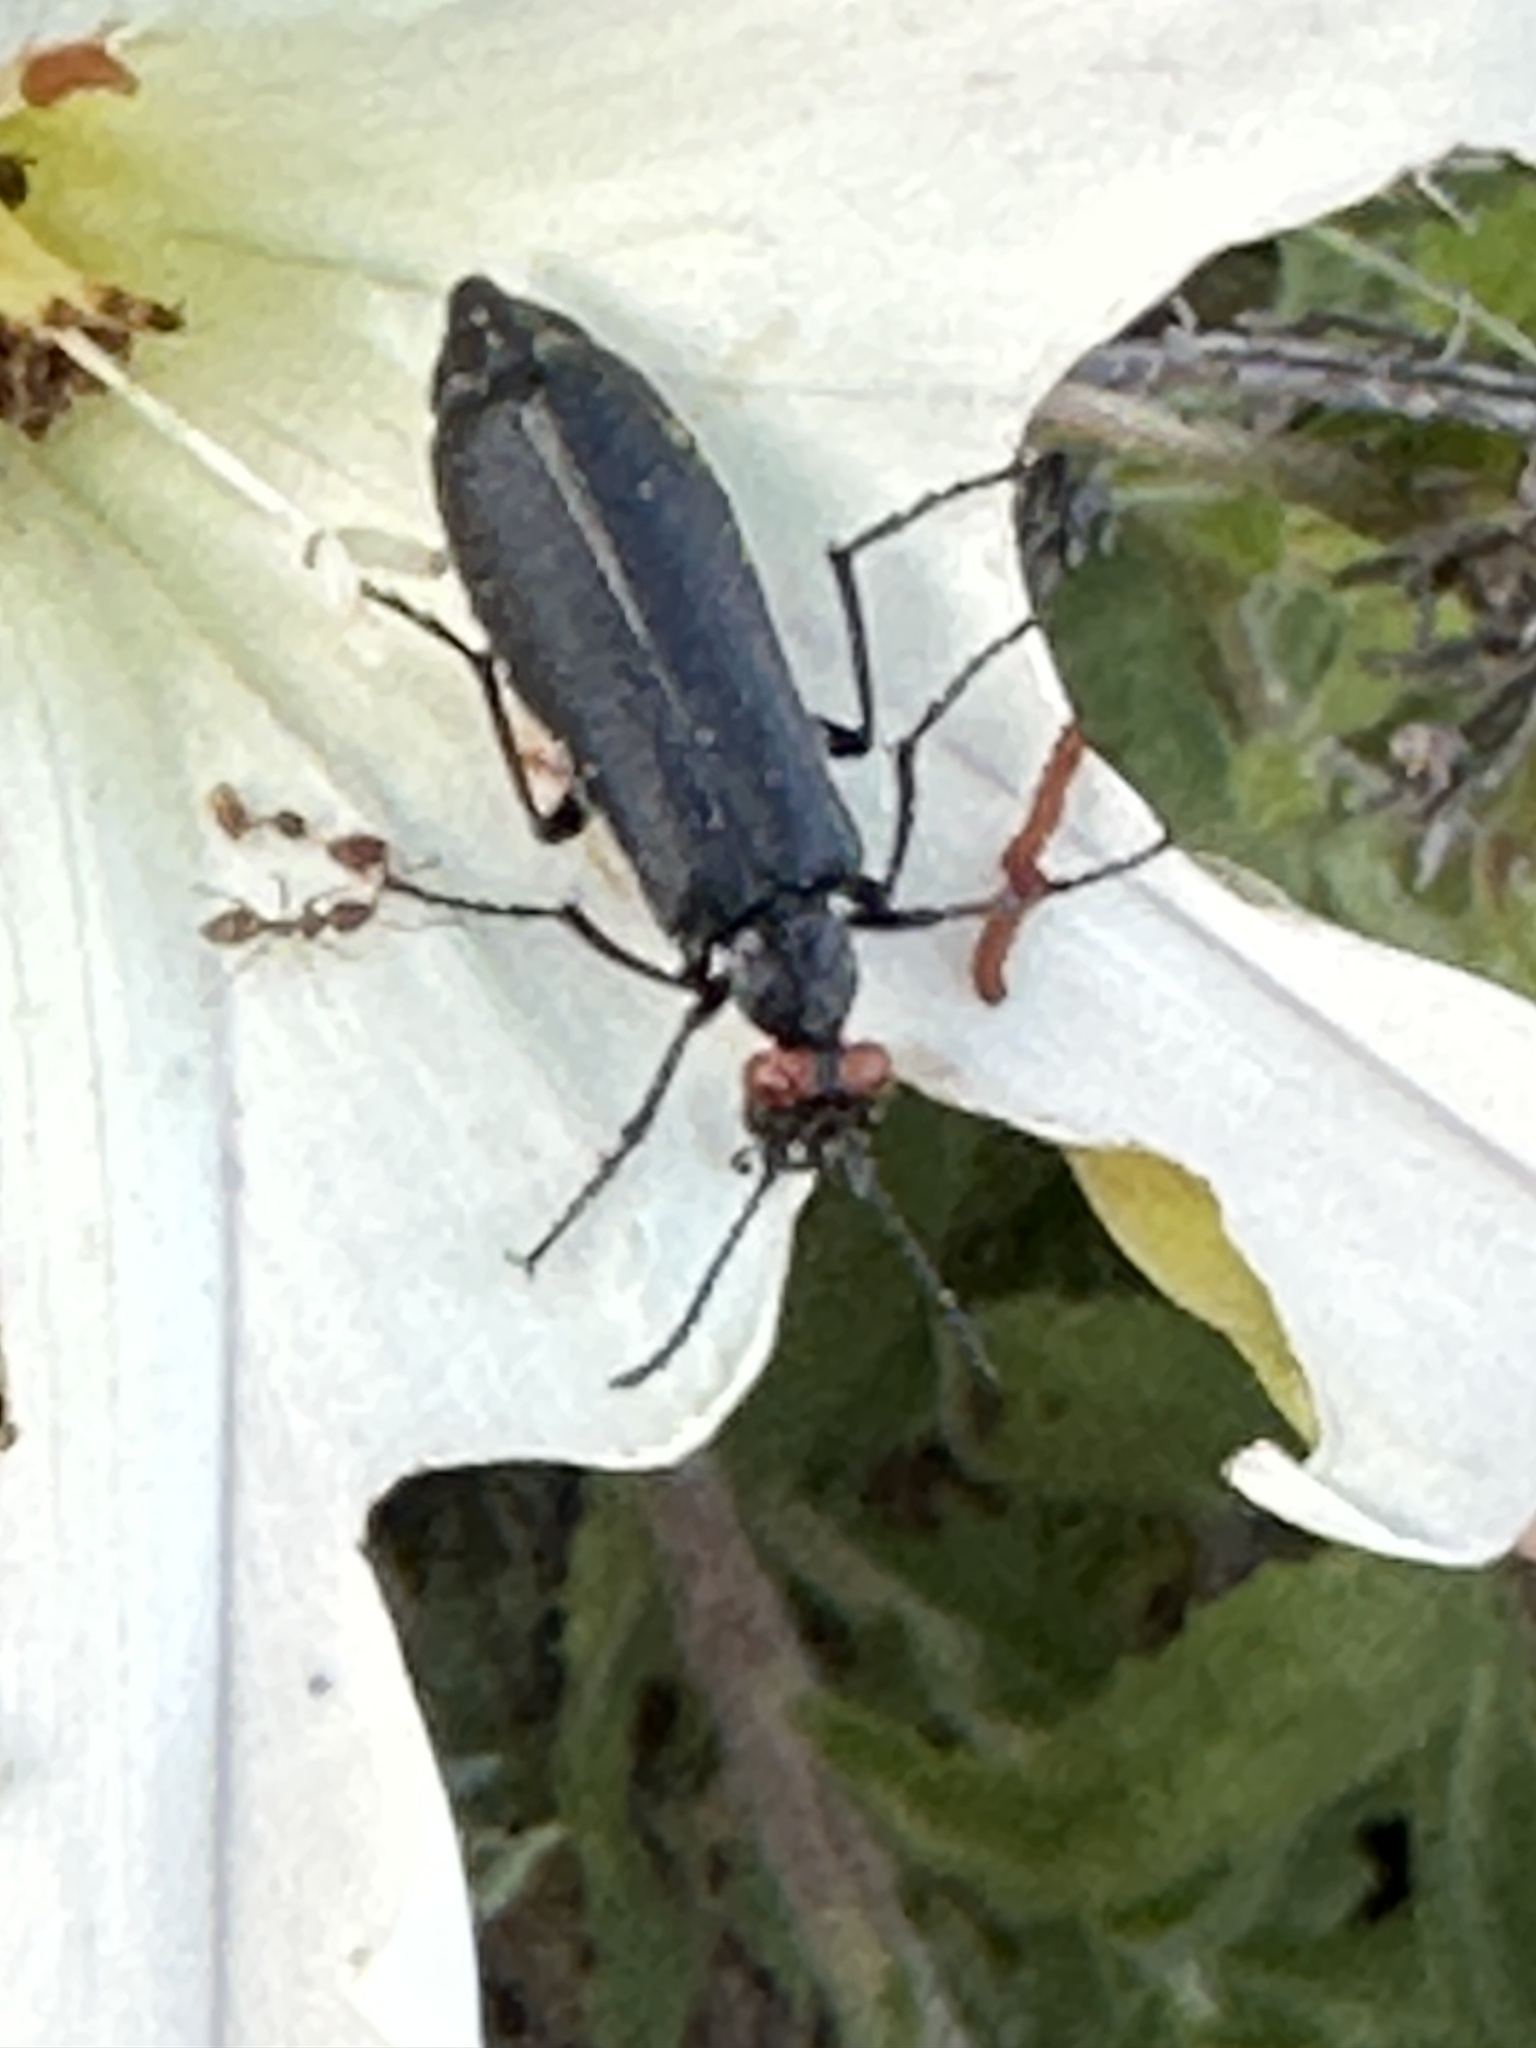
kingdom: Animalia
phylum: Arthropoda
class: Insecta
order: Coleoptera
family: Meloidae
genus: Lytta
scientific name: Lytta auriculata
